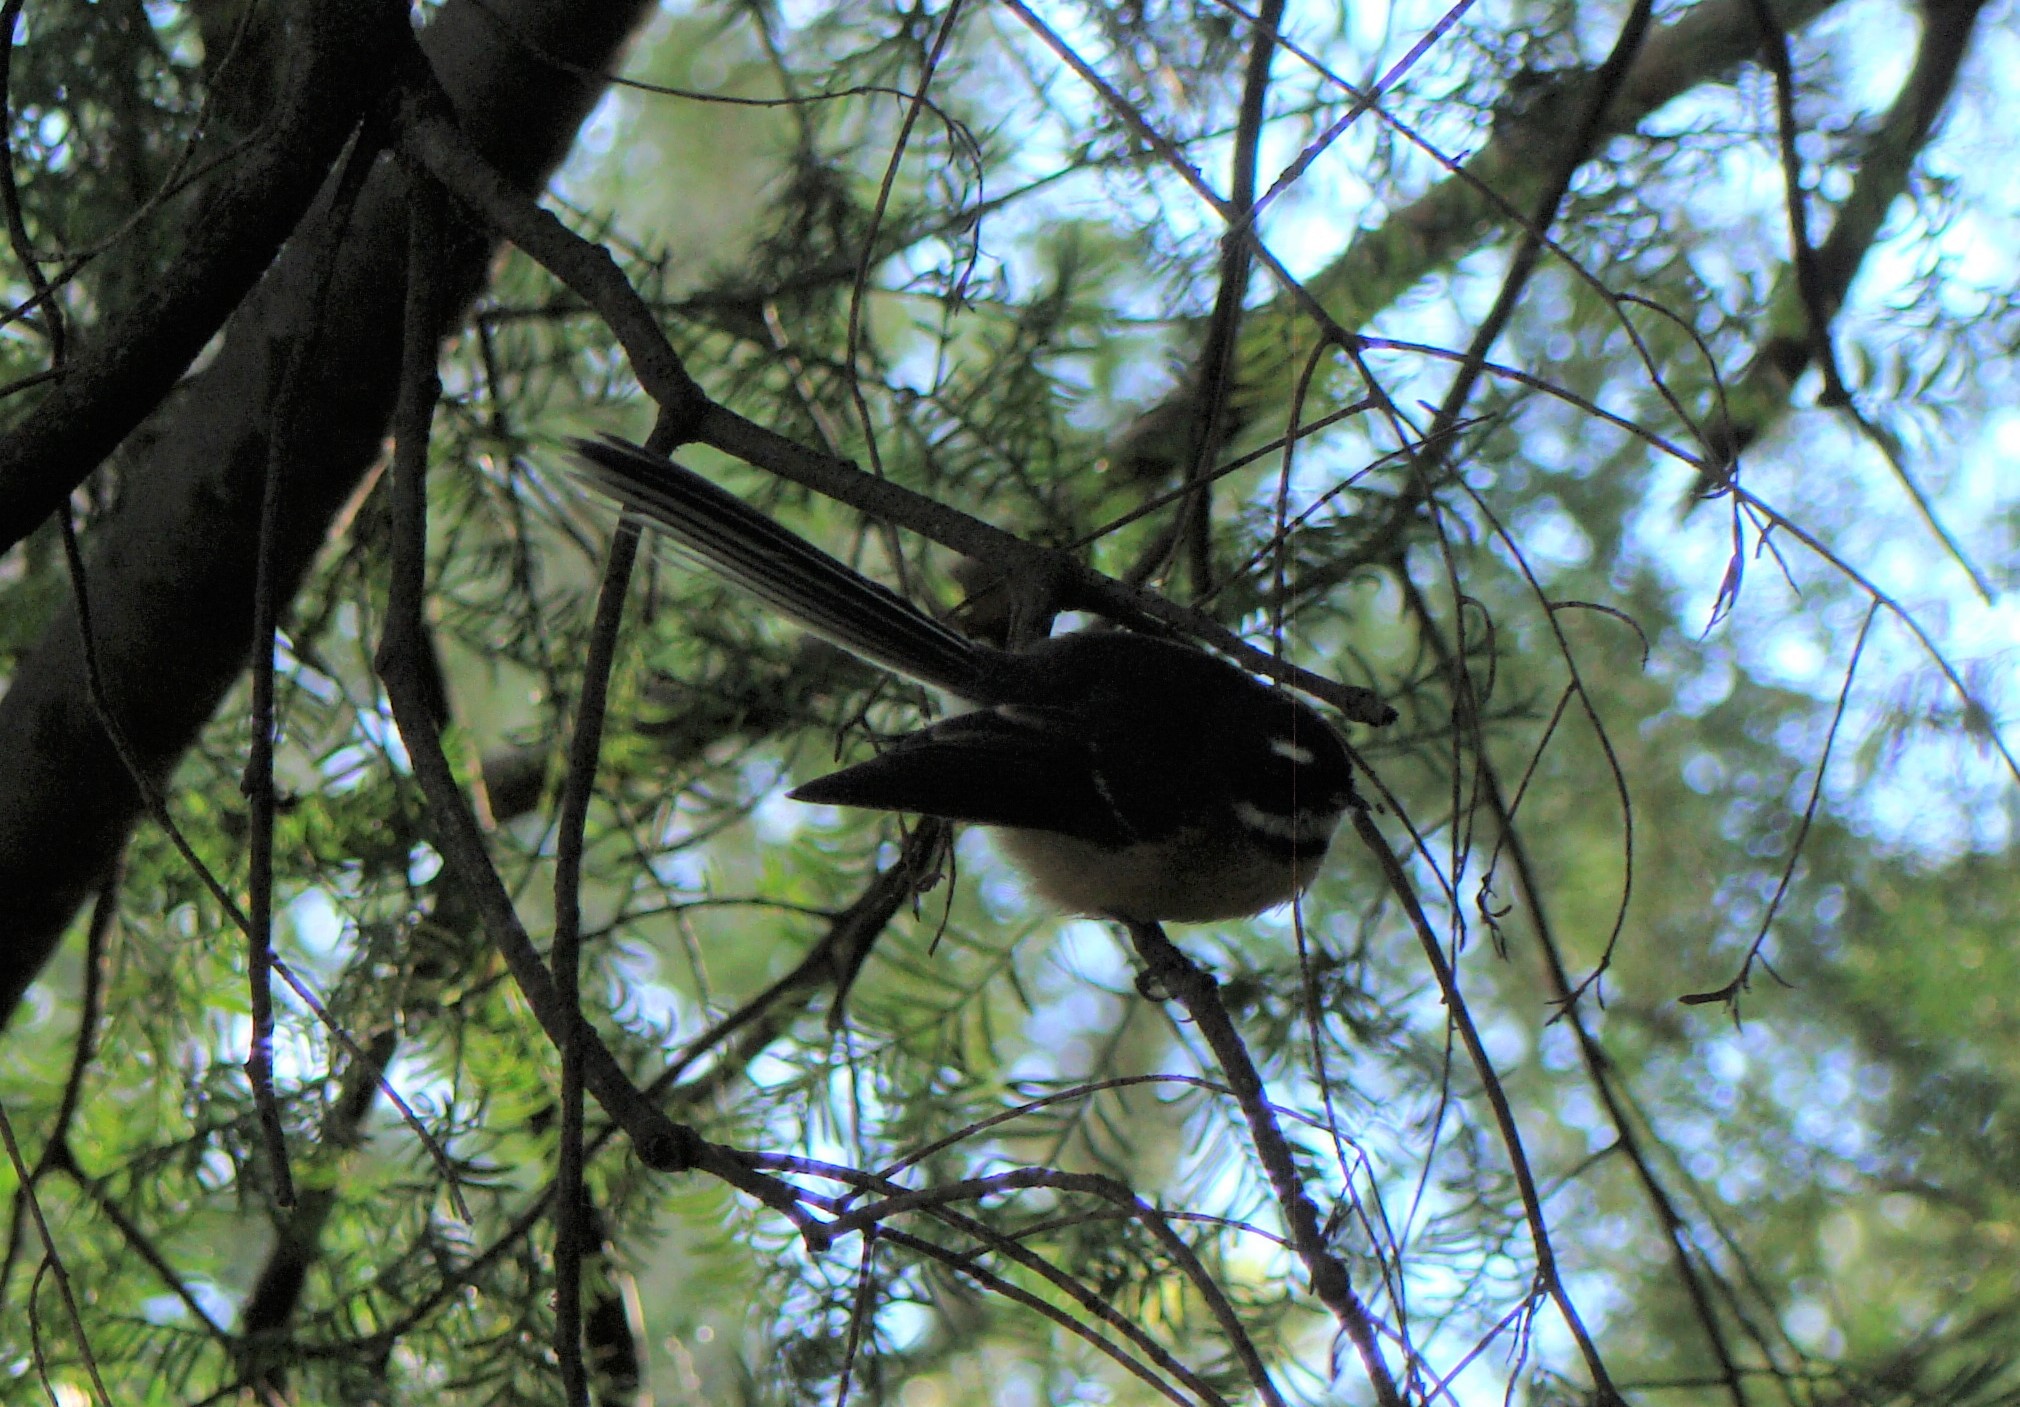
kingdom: Animalia
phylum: Chordata
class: Aves
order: Passeriformes
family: Rhipiduridae
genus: Rhipidura
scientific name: Rhipidura fuliginosa
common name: New zealand fantail
